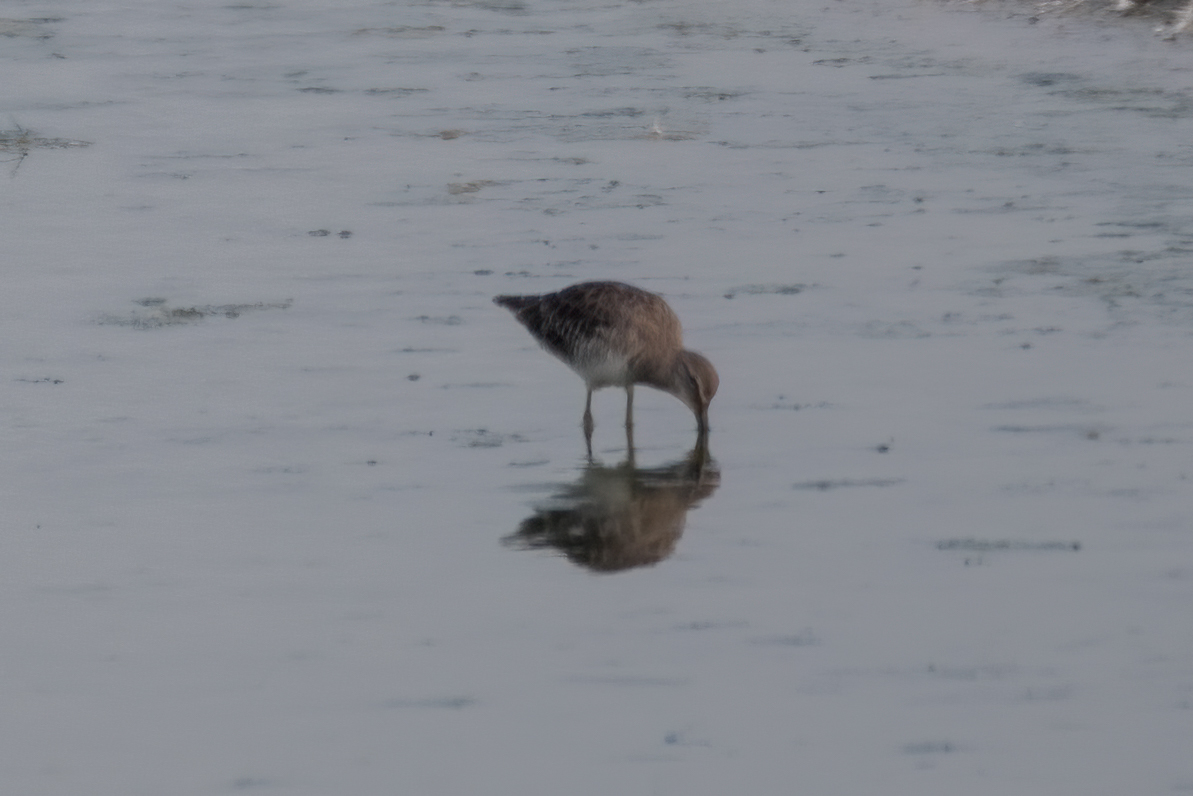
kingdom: Animalia
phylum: Chordata
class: Aves
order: Charadriiformes
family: Scolopacidae
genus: Limnodromus
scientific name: Limnodromus scolopaceus
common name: Long-billed dowitcher
